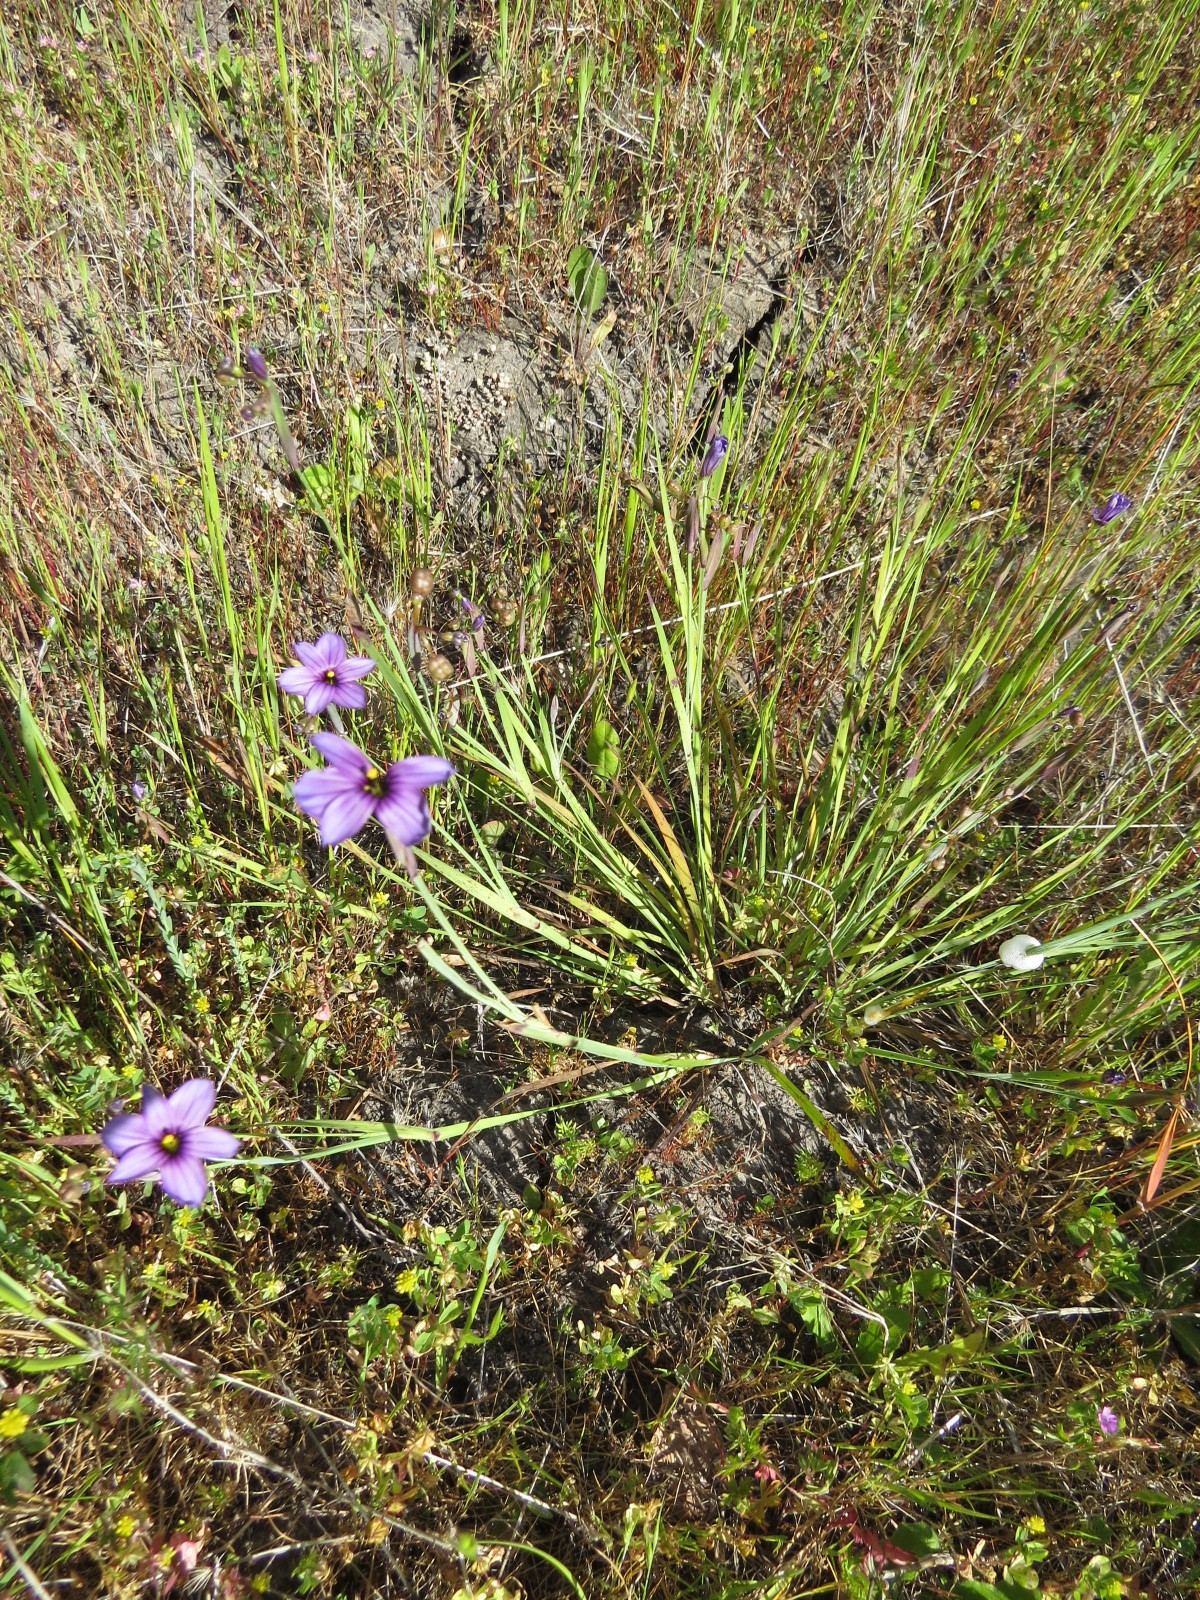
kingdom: Plantae
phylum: Tracheophyta
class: Liliopsida
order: Asparagales
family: Iridaceae
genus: Sisyrinchium
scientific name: Sisyrinchium bellum
